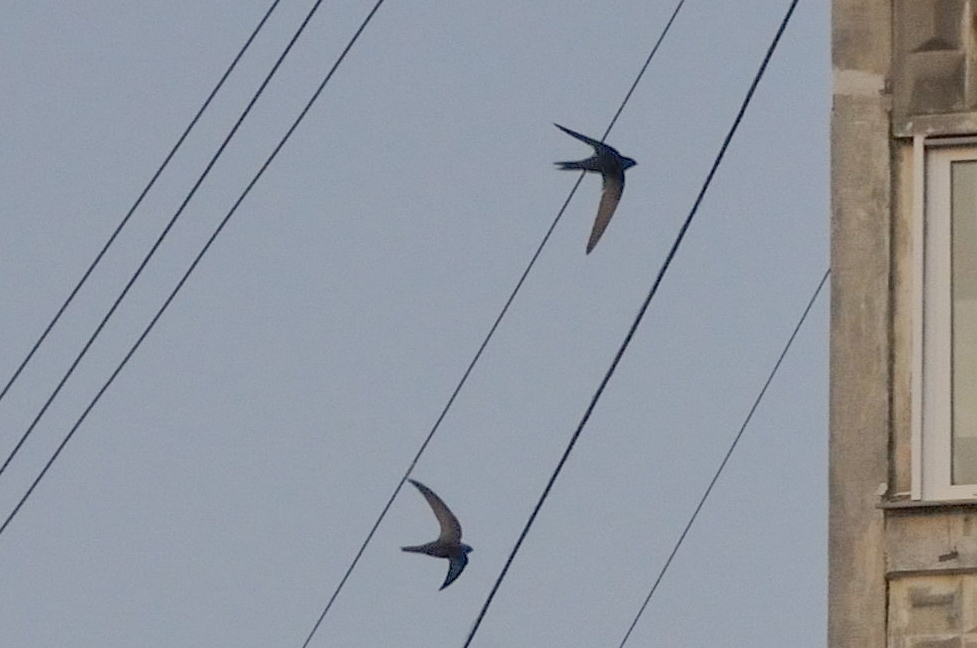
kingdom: Animalia
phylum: Chordata
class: Aves
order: Apodiformes
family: Apodidae
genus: Apus
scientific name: Apus apus
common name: Common swift
